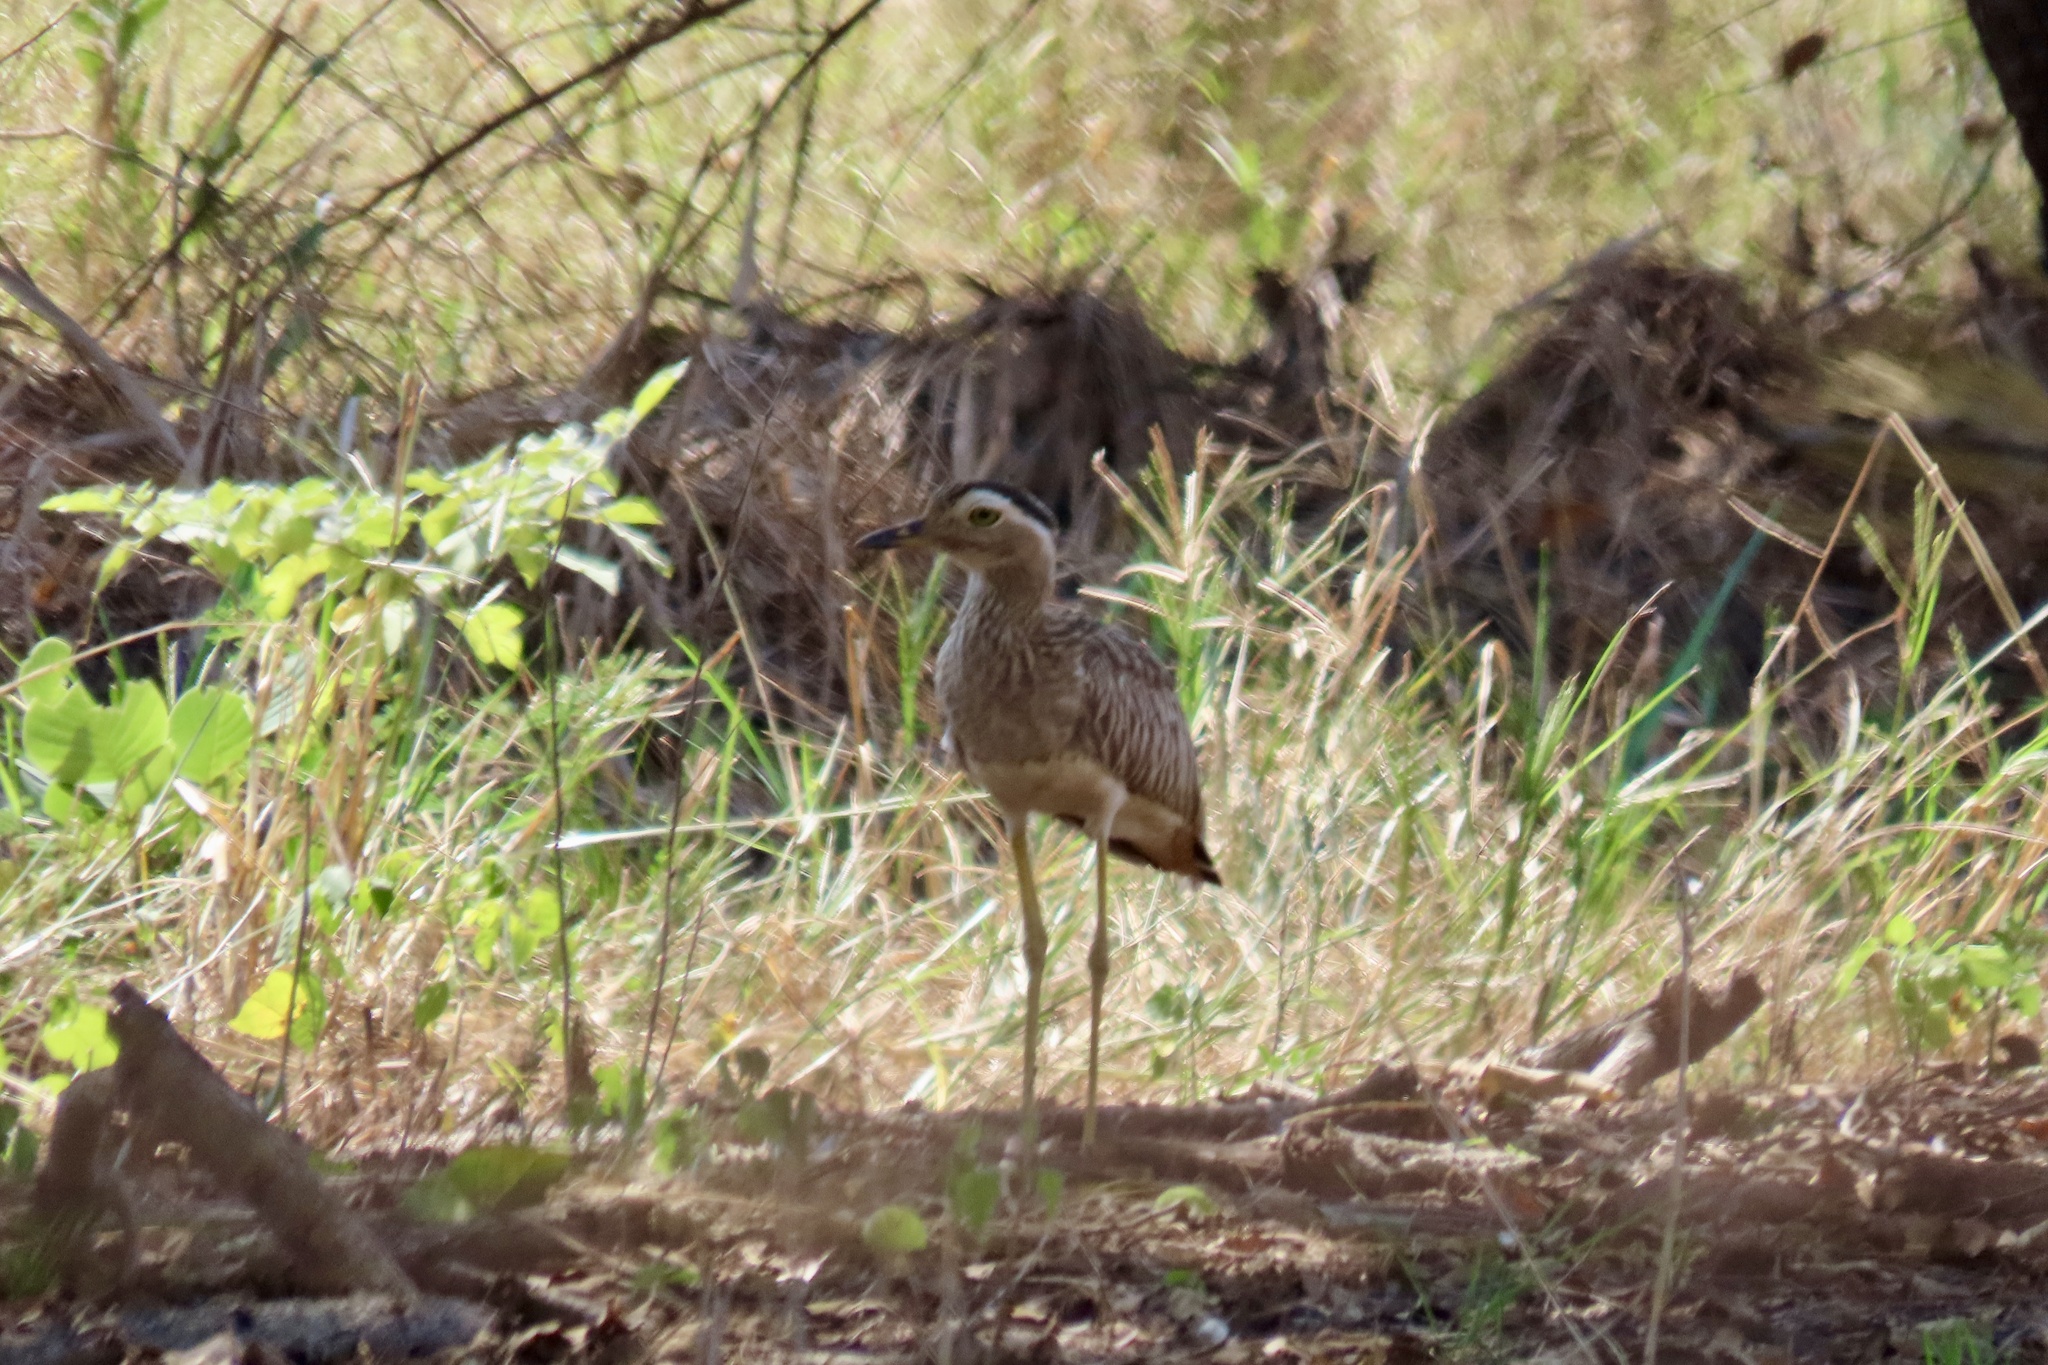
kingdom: Animalia
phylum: Chordata
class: Aves
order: Charadriiformes
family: Burhinidae
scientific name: Burhinidae
